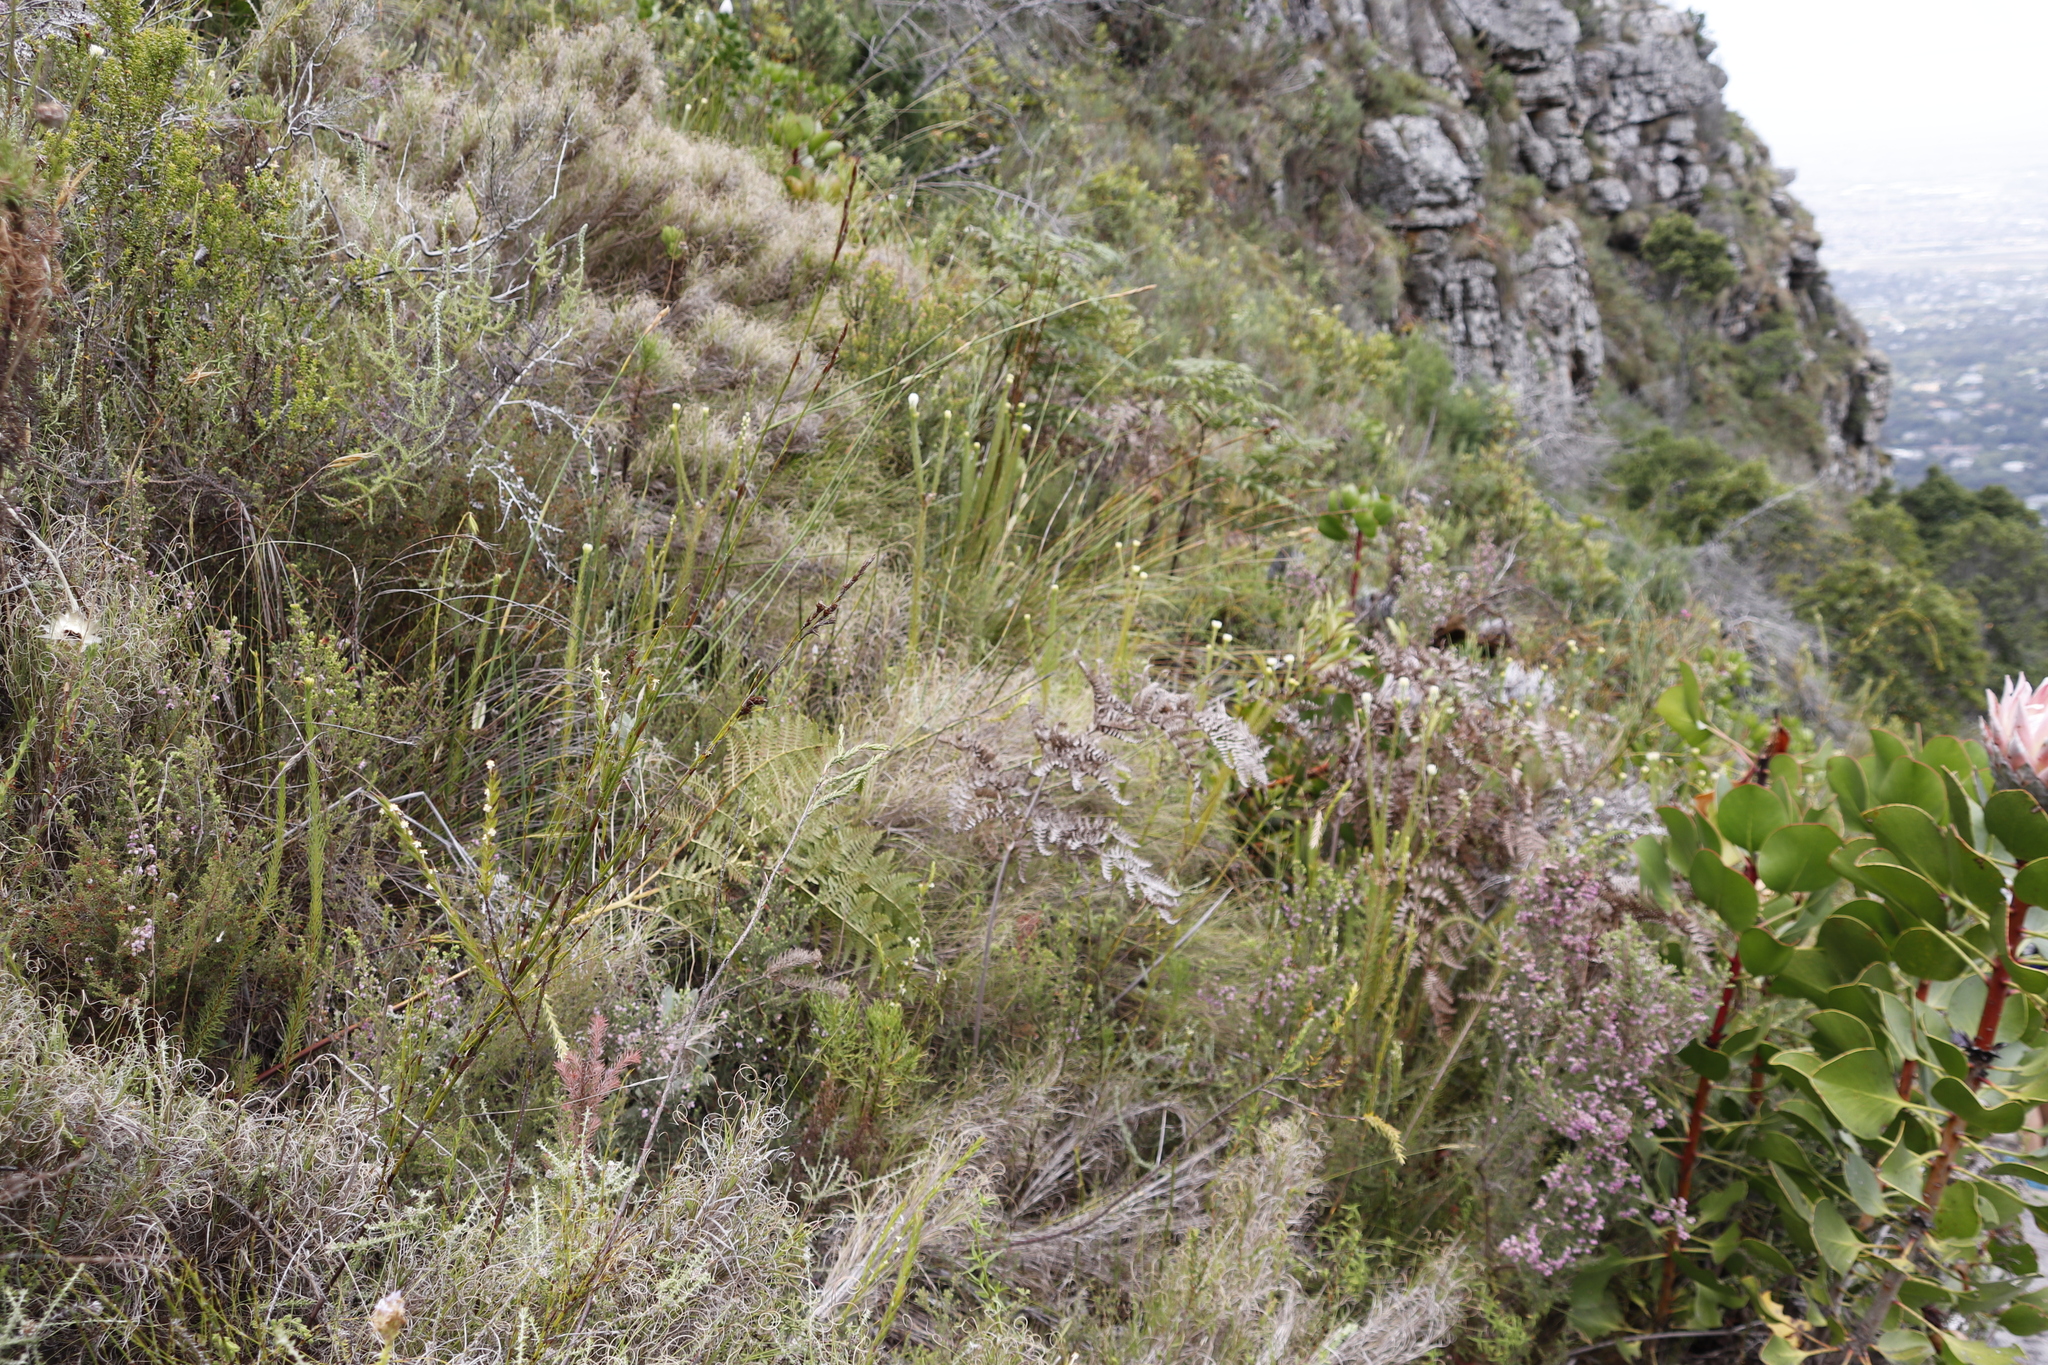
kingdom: Plantae
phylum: Tracheophyta
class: Magnoliopsida
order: Bruniales
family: Bruniaceae
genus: Staavia
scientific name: Staavia glutinosa
